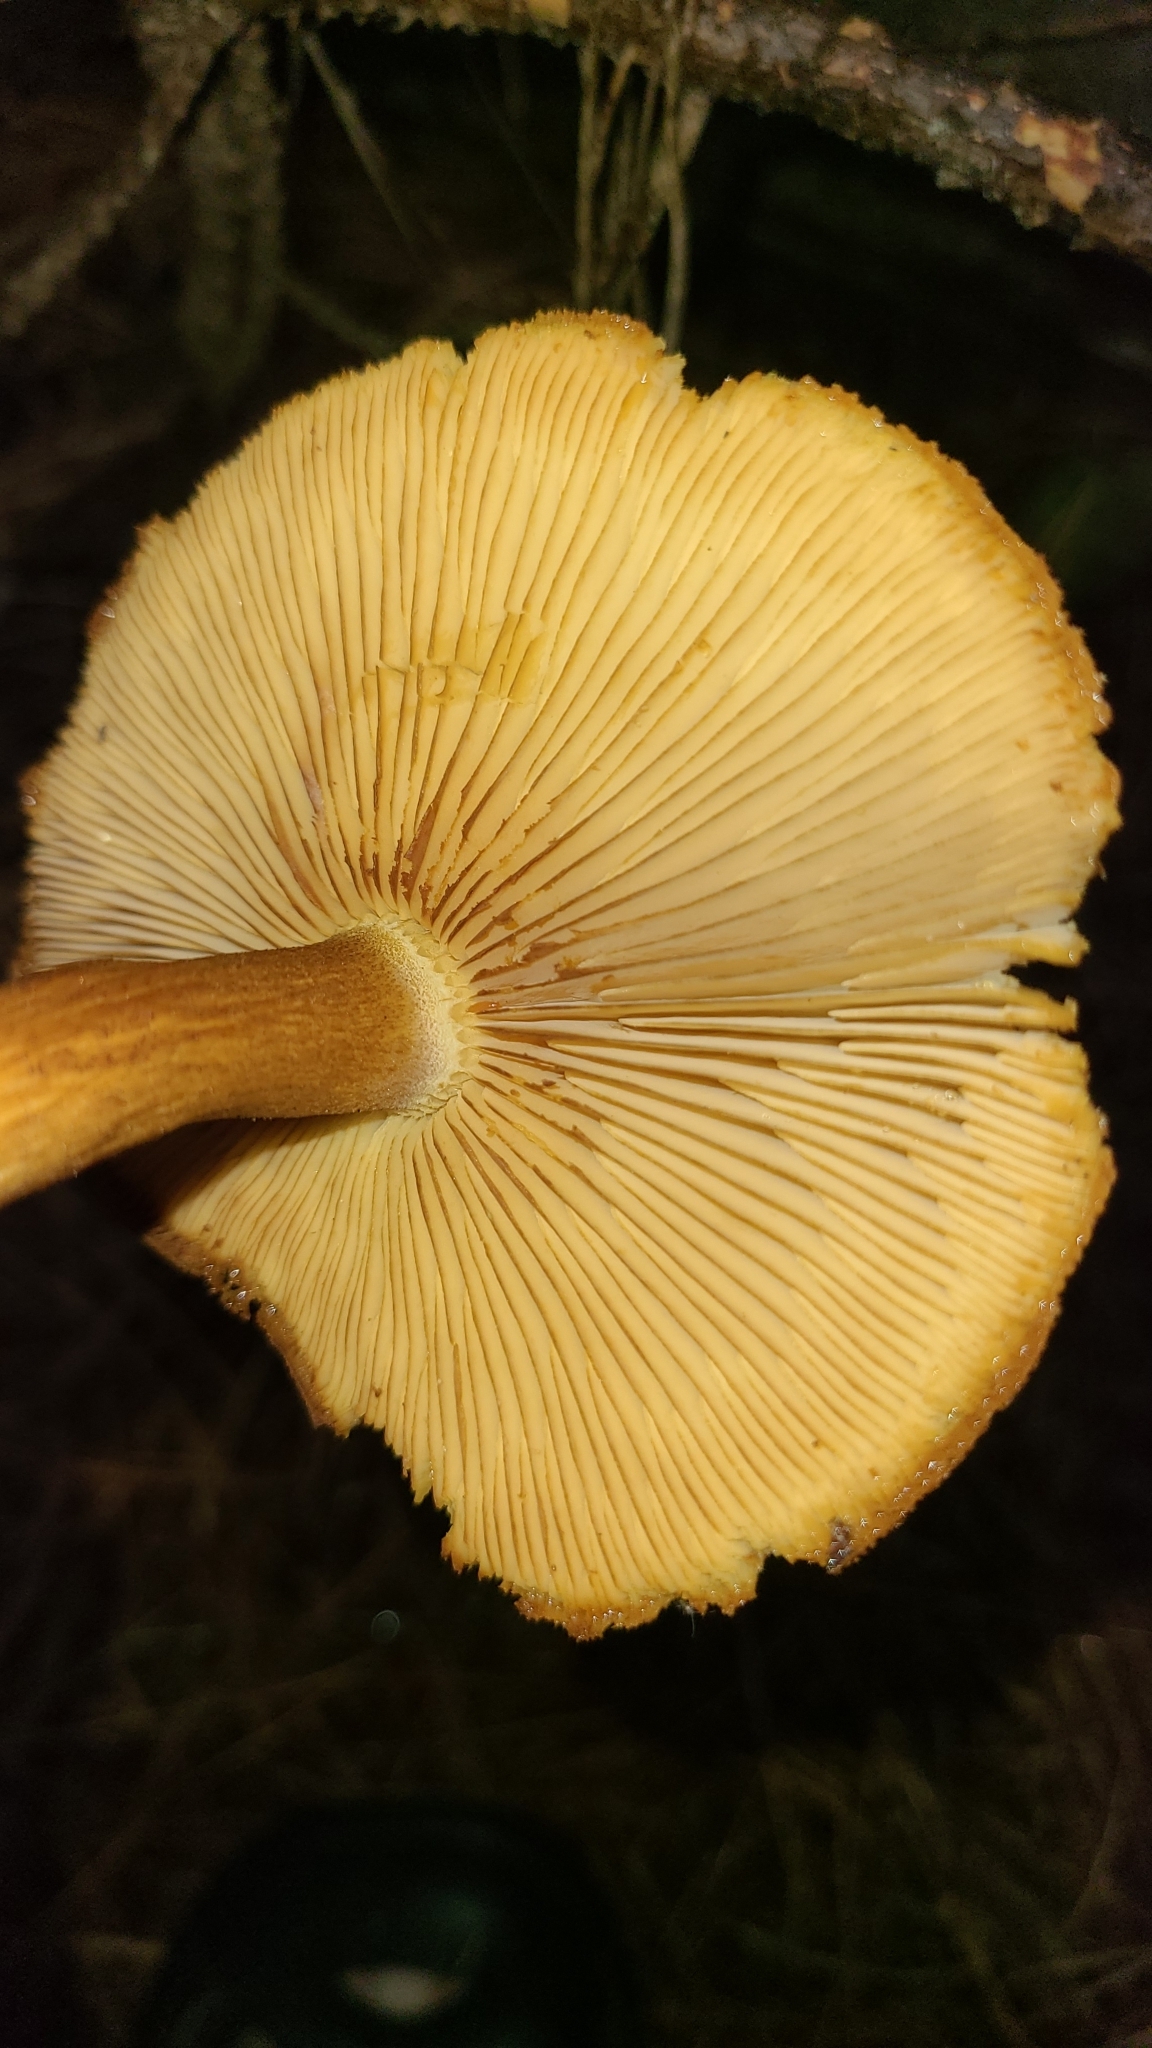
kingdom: Fungi
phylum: Basidiomycota
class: Agaricomycetes
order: Agaricales
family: Tricholomataceae
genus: Tricholomopsis
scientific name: Tricholomopsis ornaticeps
